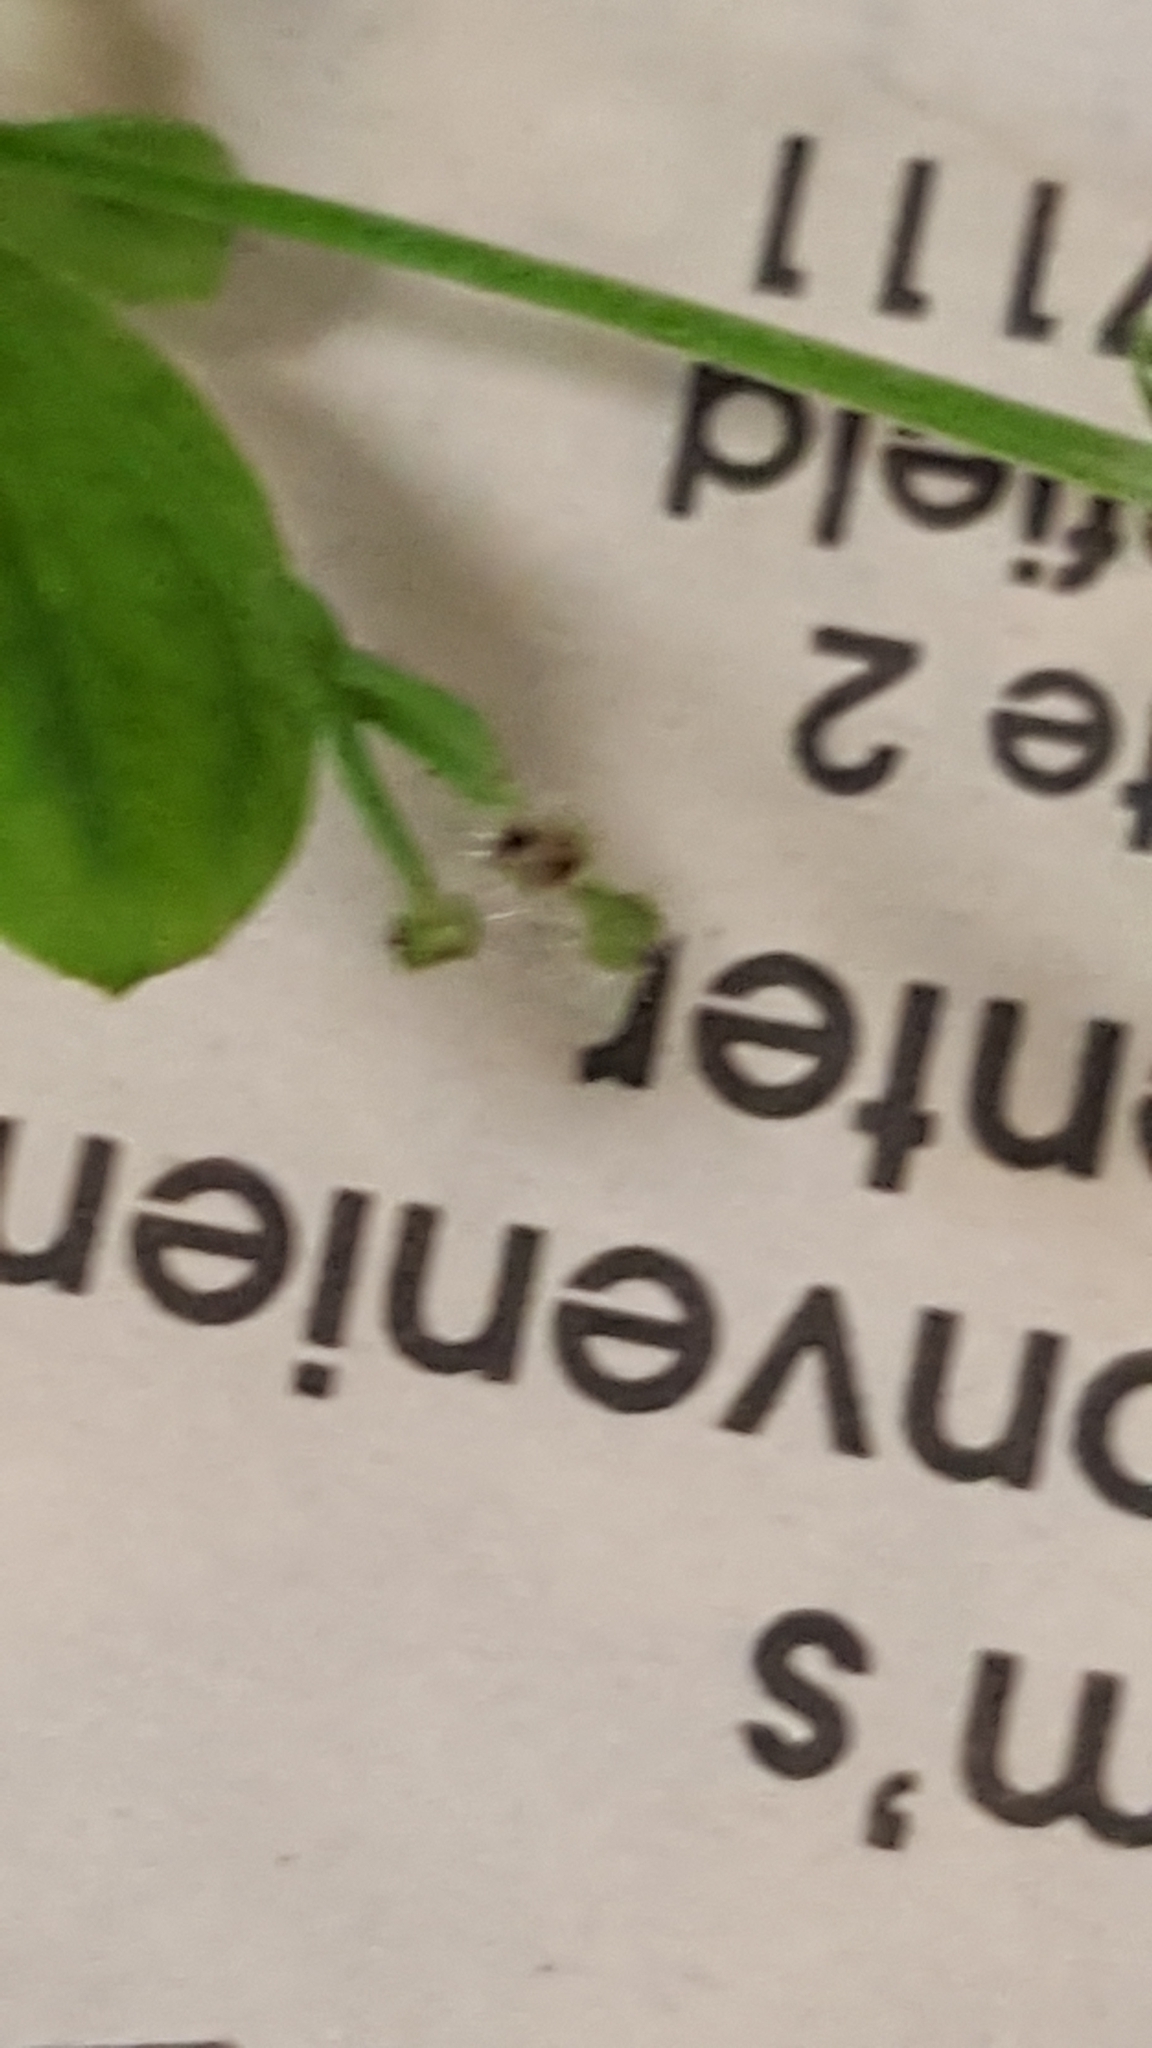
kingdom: Plantae
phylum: Tracheophyta
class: Magnoliopsida
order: Gentianales
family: Rubiaceae
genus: Galium
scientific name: Galium kamtschaticum
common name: Boreal bedstraw
